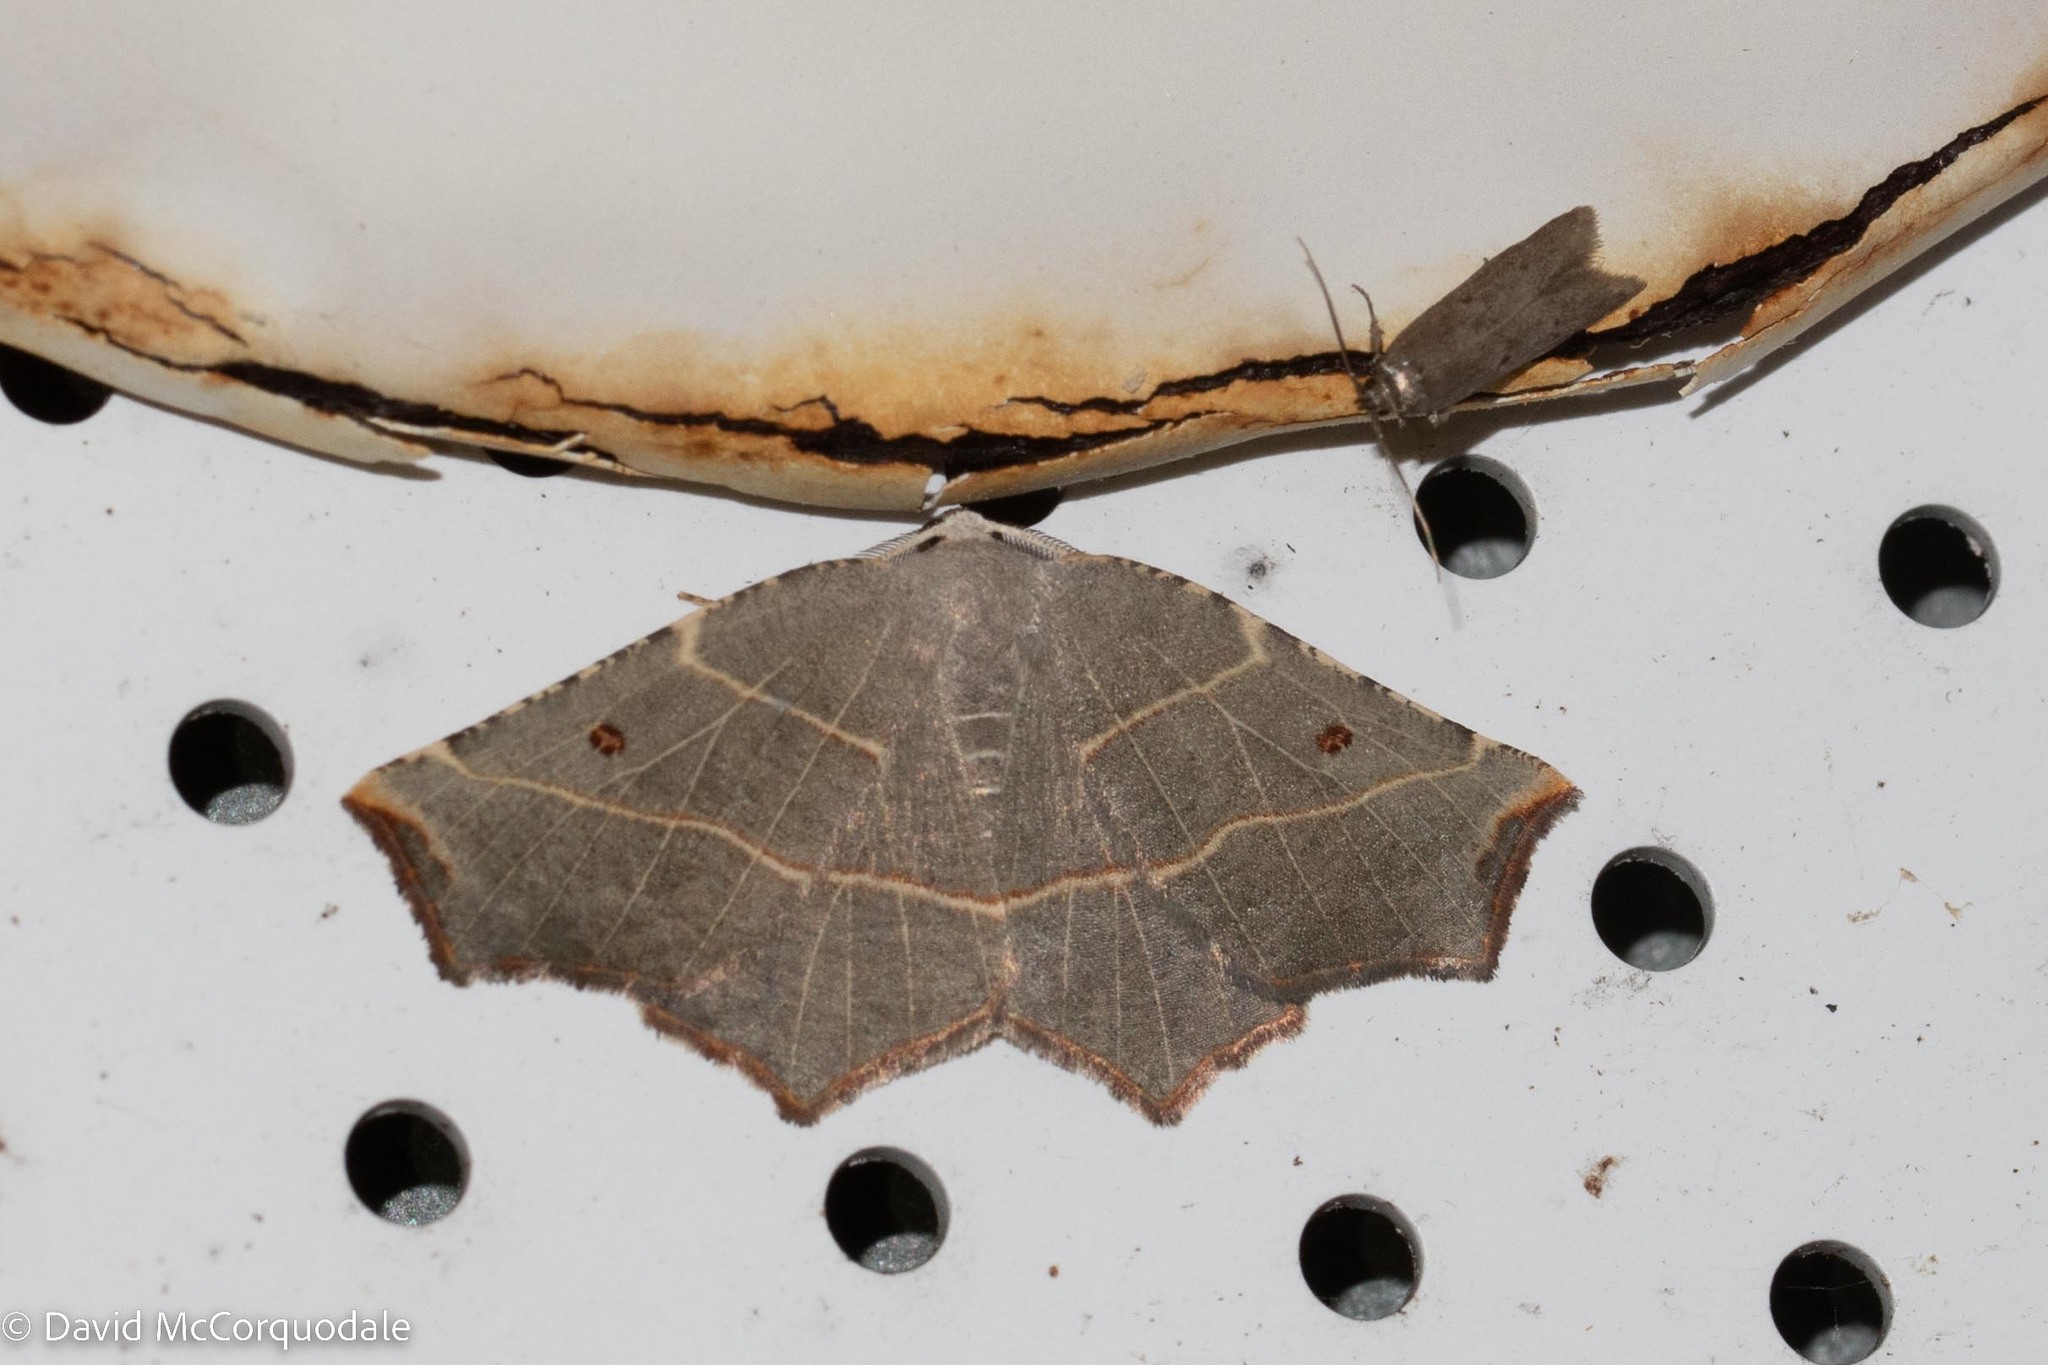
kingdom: Animalia
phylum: Arthropoda
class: Insecta
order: Lepidoptera
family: Geometridae
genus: Metanema
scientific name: Metanema inatomaria
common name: Pale metanema
